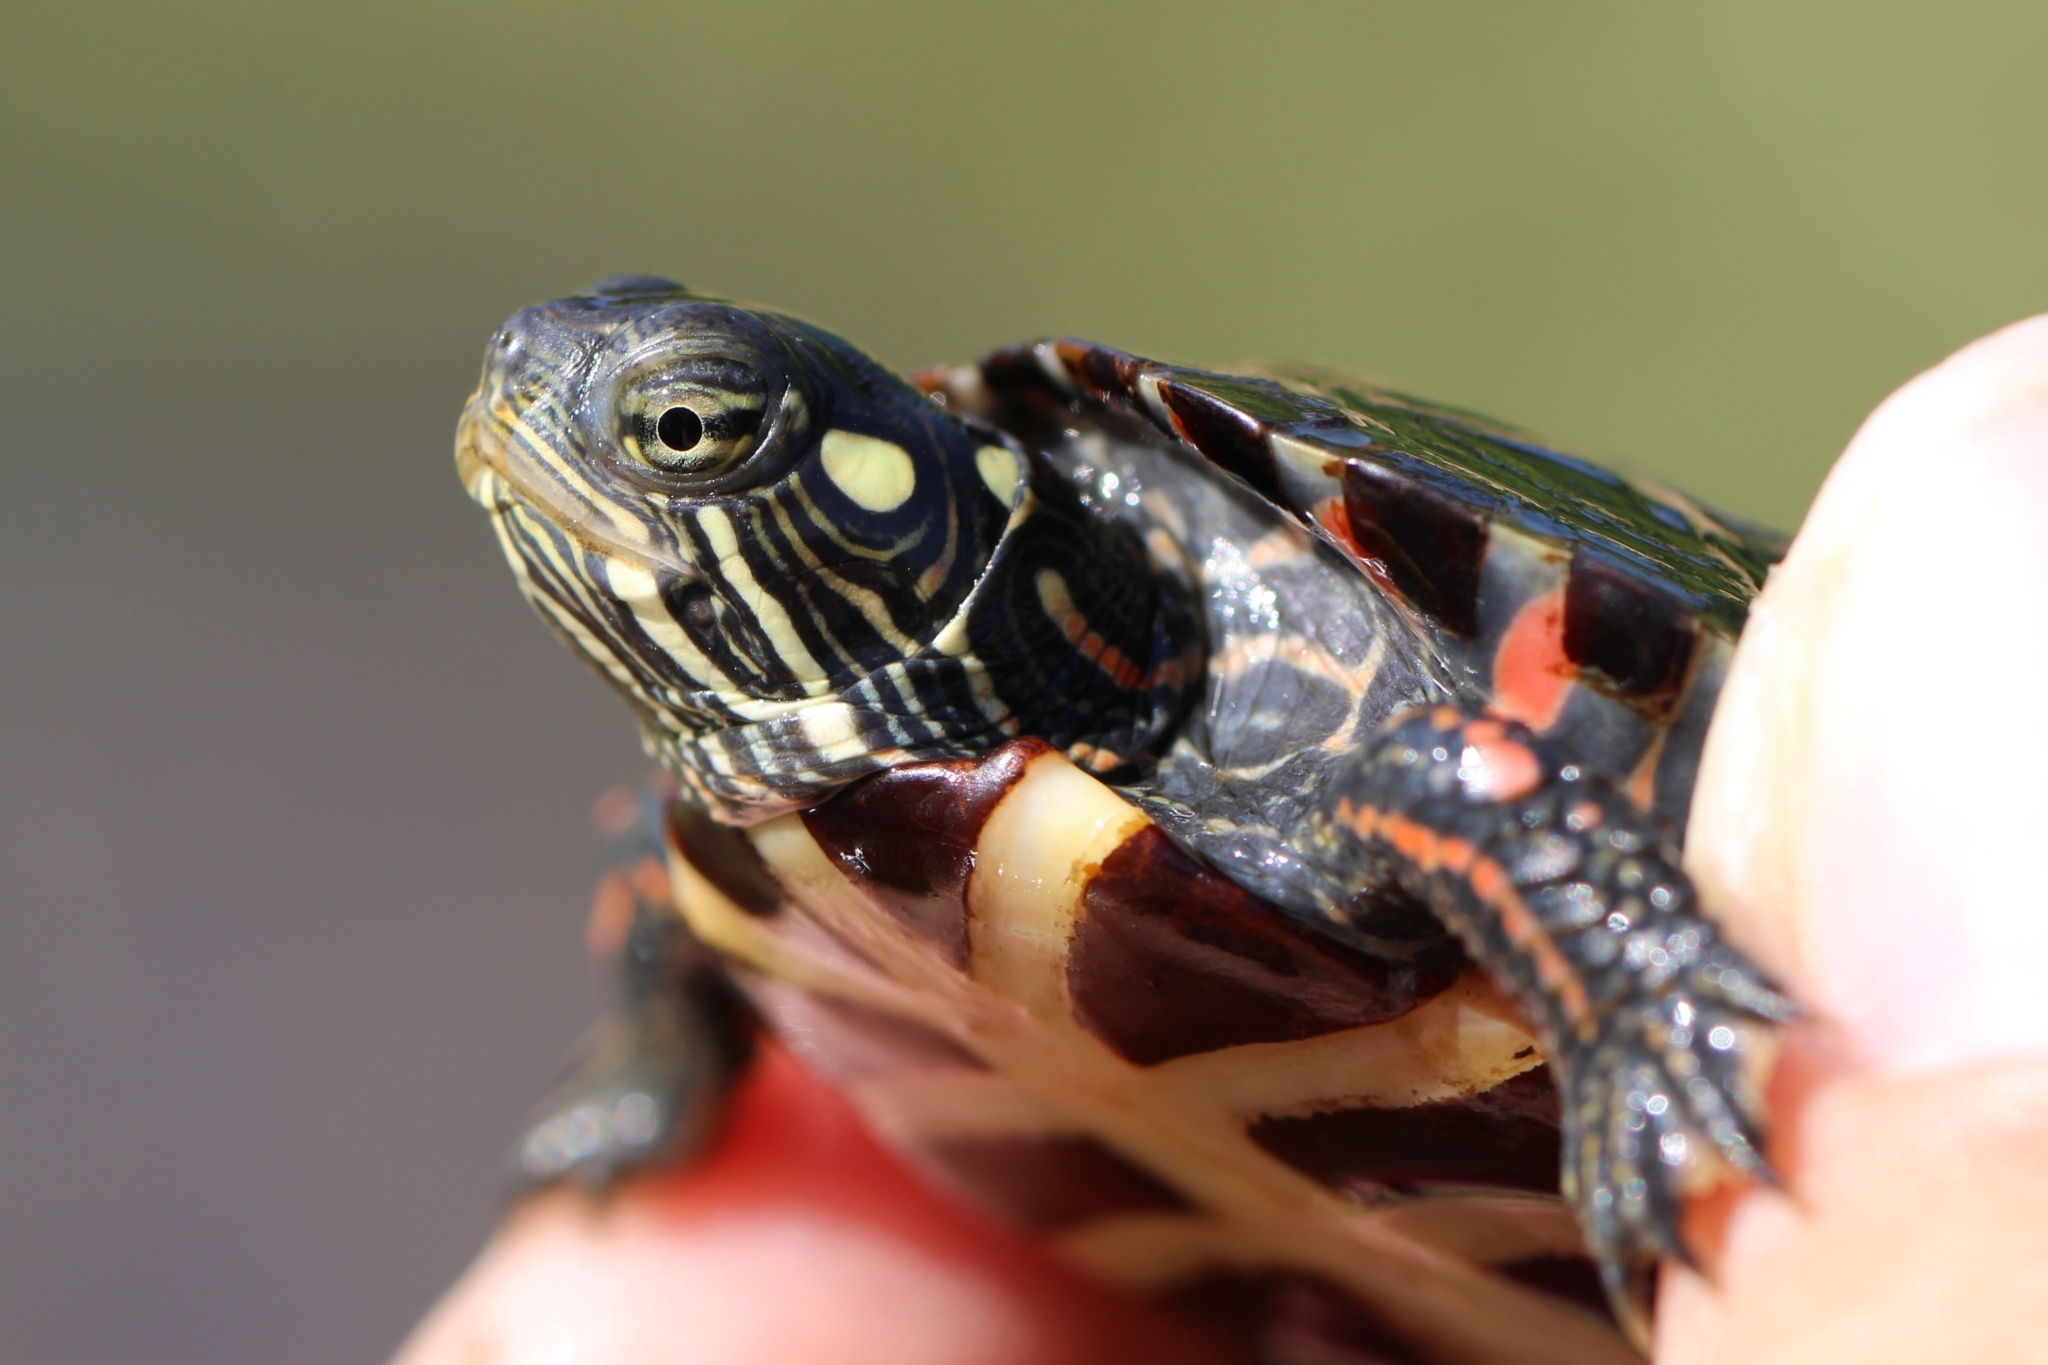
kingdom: Animalia
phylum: Chordata
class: Testudines
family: Emydidae
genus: Chrysemys
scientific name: Chrysemys picta
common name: Painted turtle
